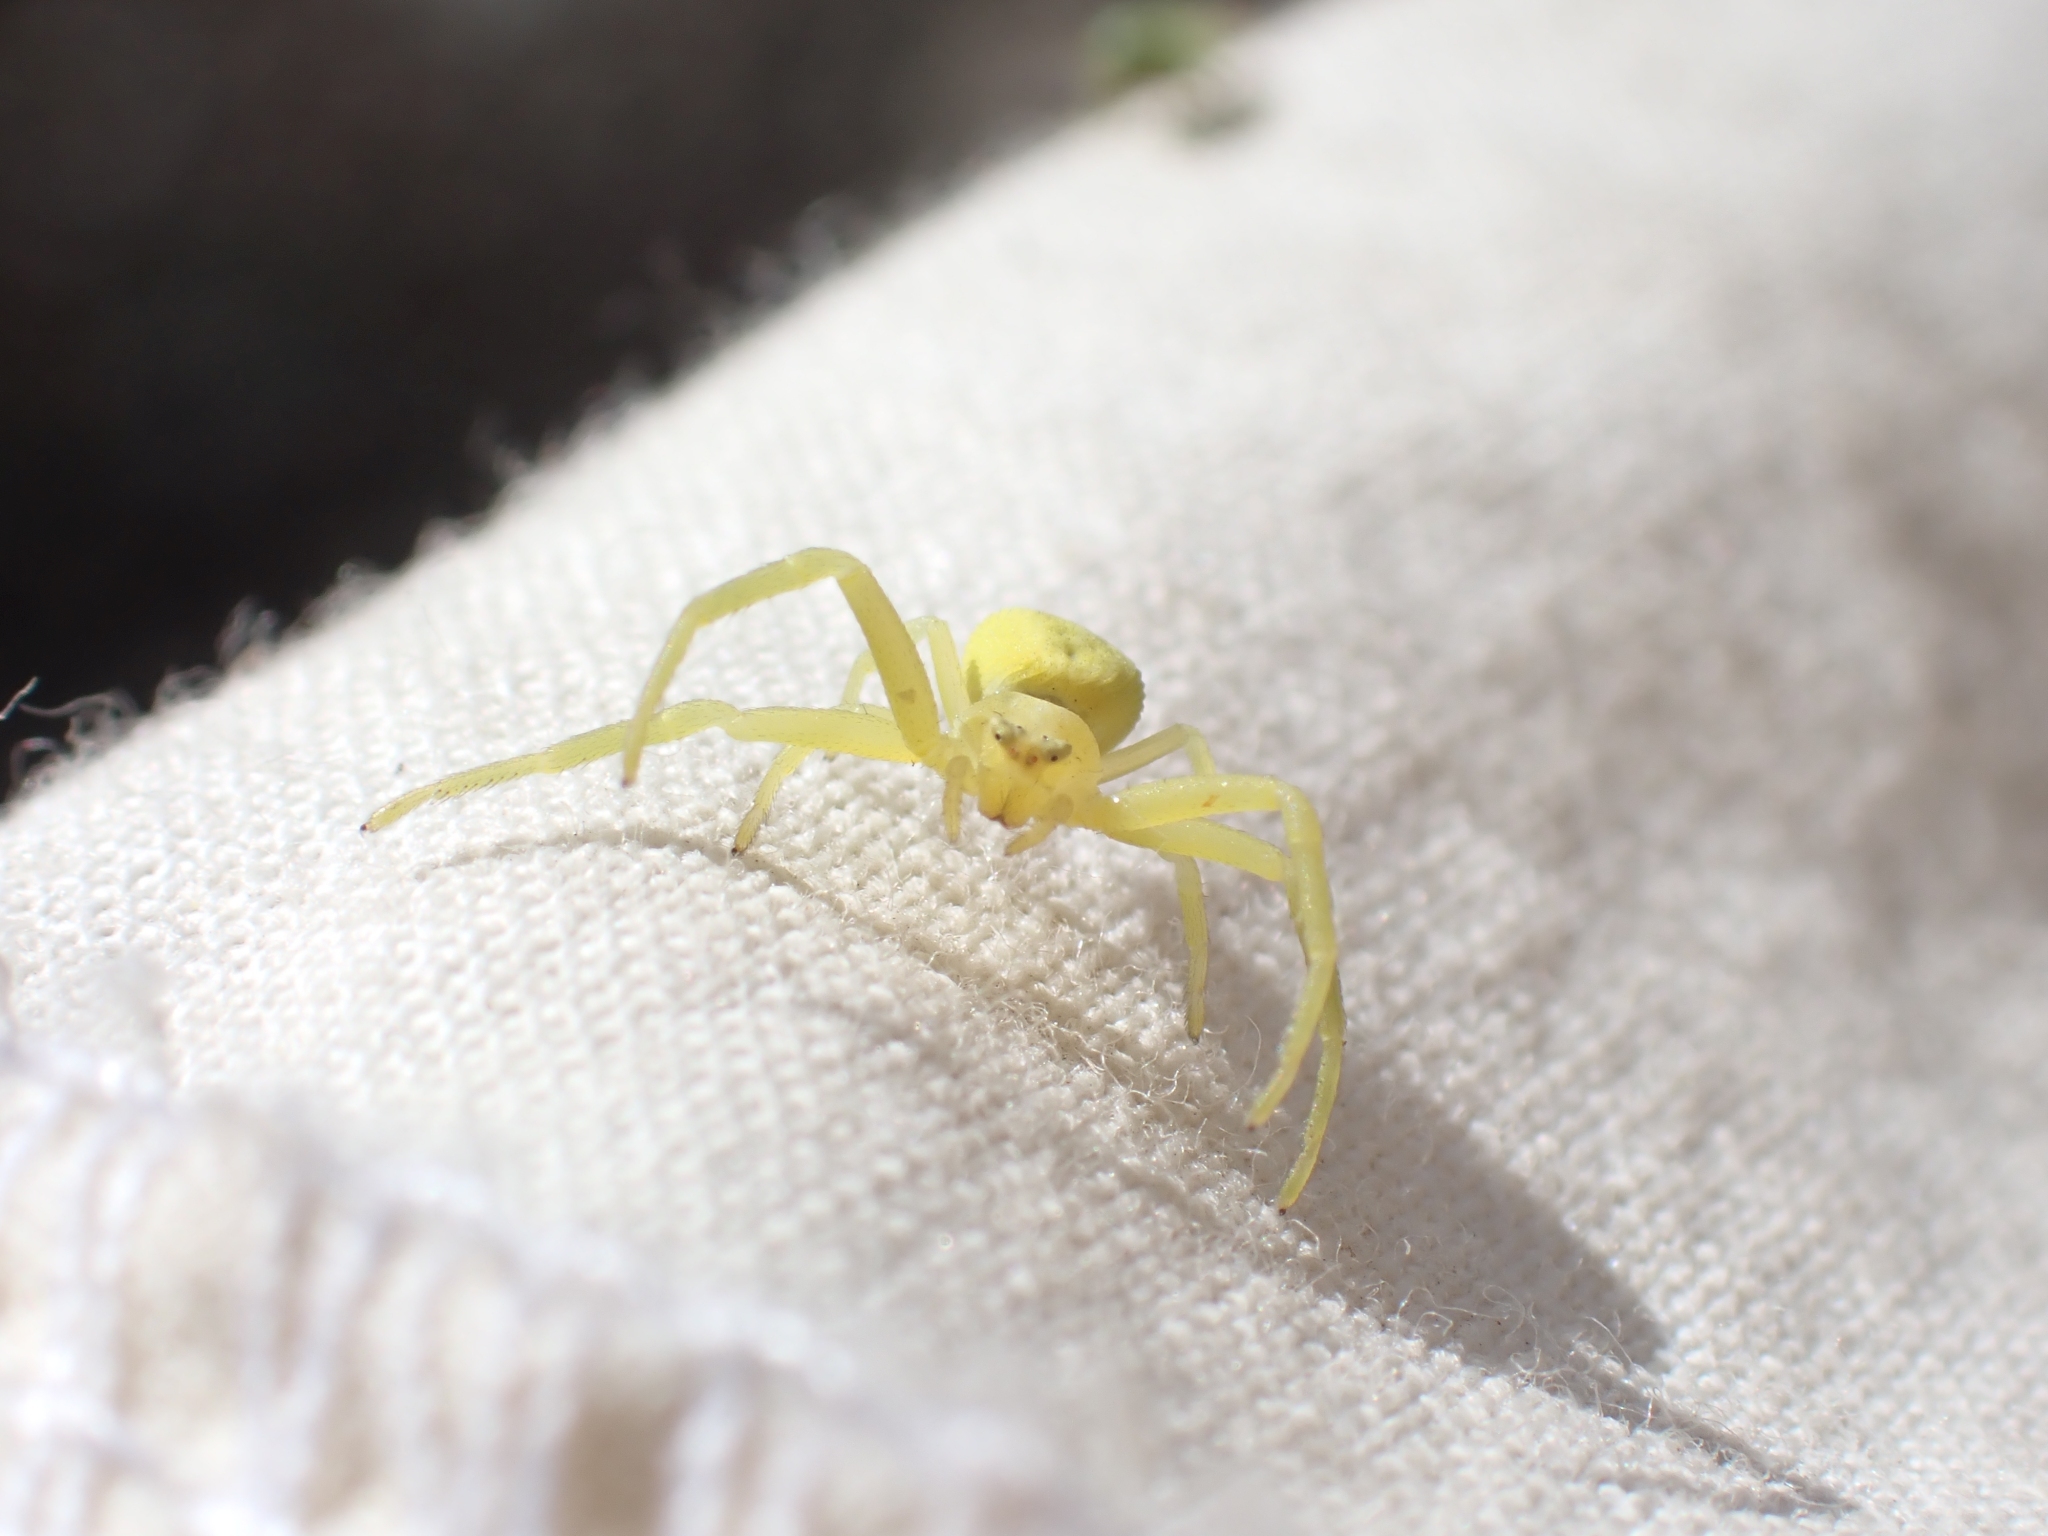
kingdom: Animalia
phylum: Arthropoda
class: Arachnida
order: Araneae
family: Thomisidae
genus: Misumena
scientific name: Misumena vatia
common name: Goldenrod crab spider
